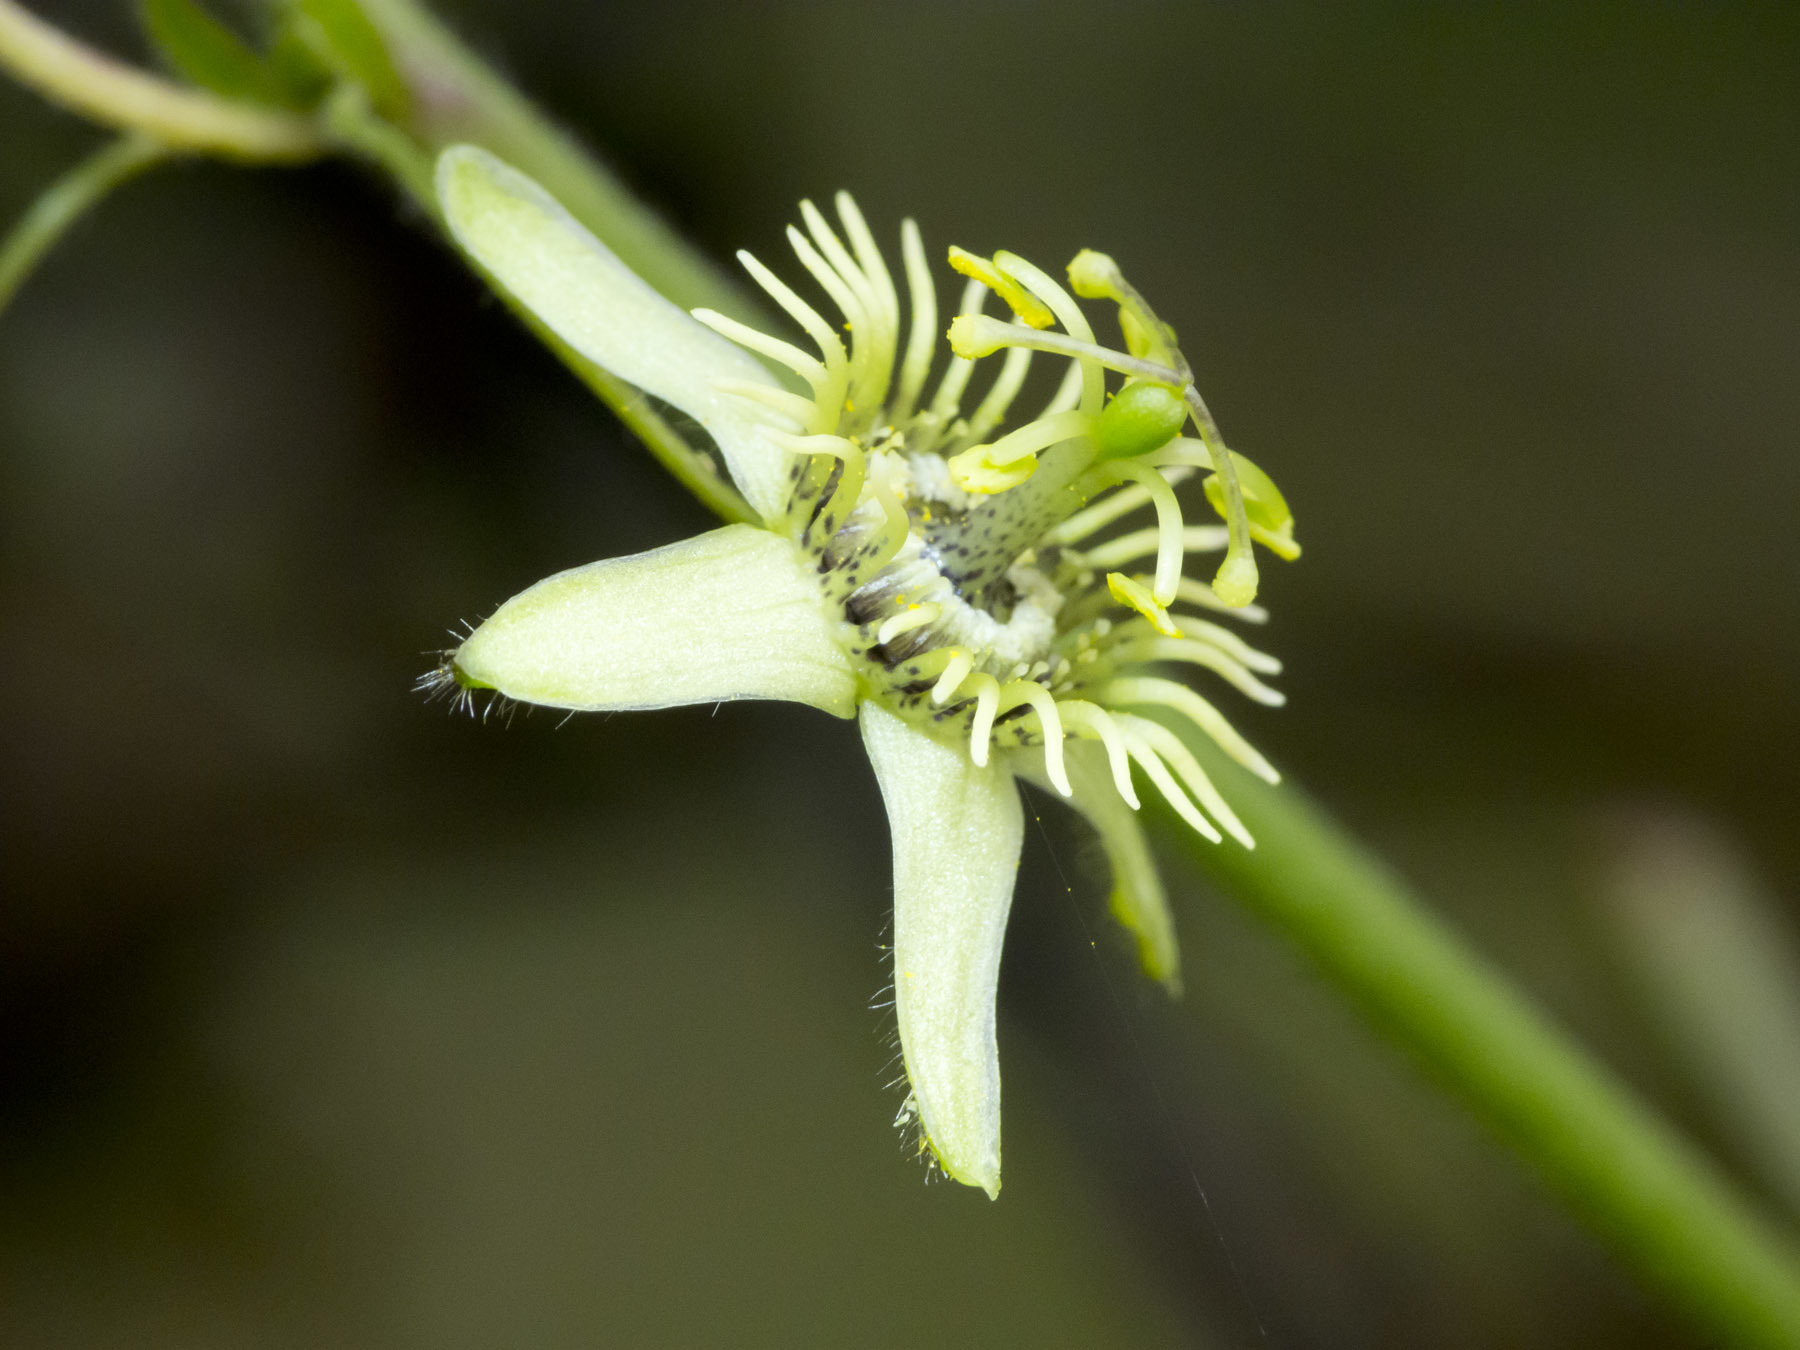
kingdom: Plantae
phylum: Tracheophyta
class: Magnoliopsida
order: Malpighiales
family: Passifloraceae
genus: Passiflora
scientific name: Passiflora suberosa
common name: Wild passionfruit
